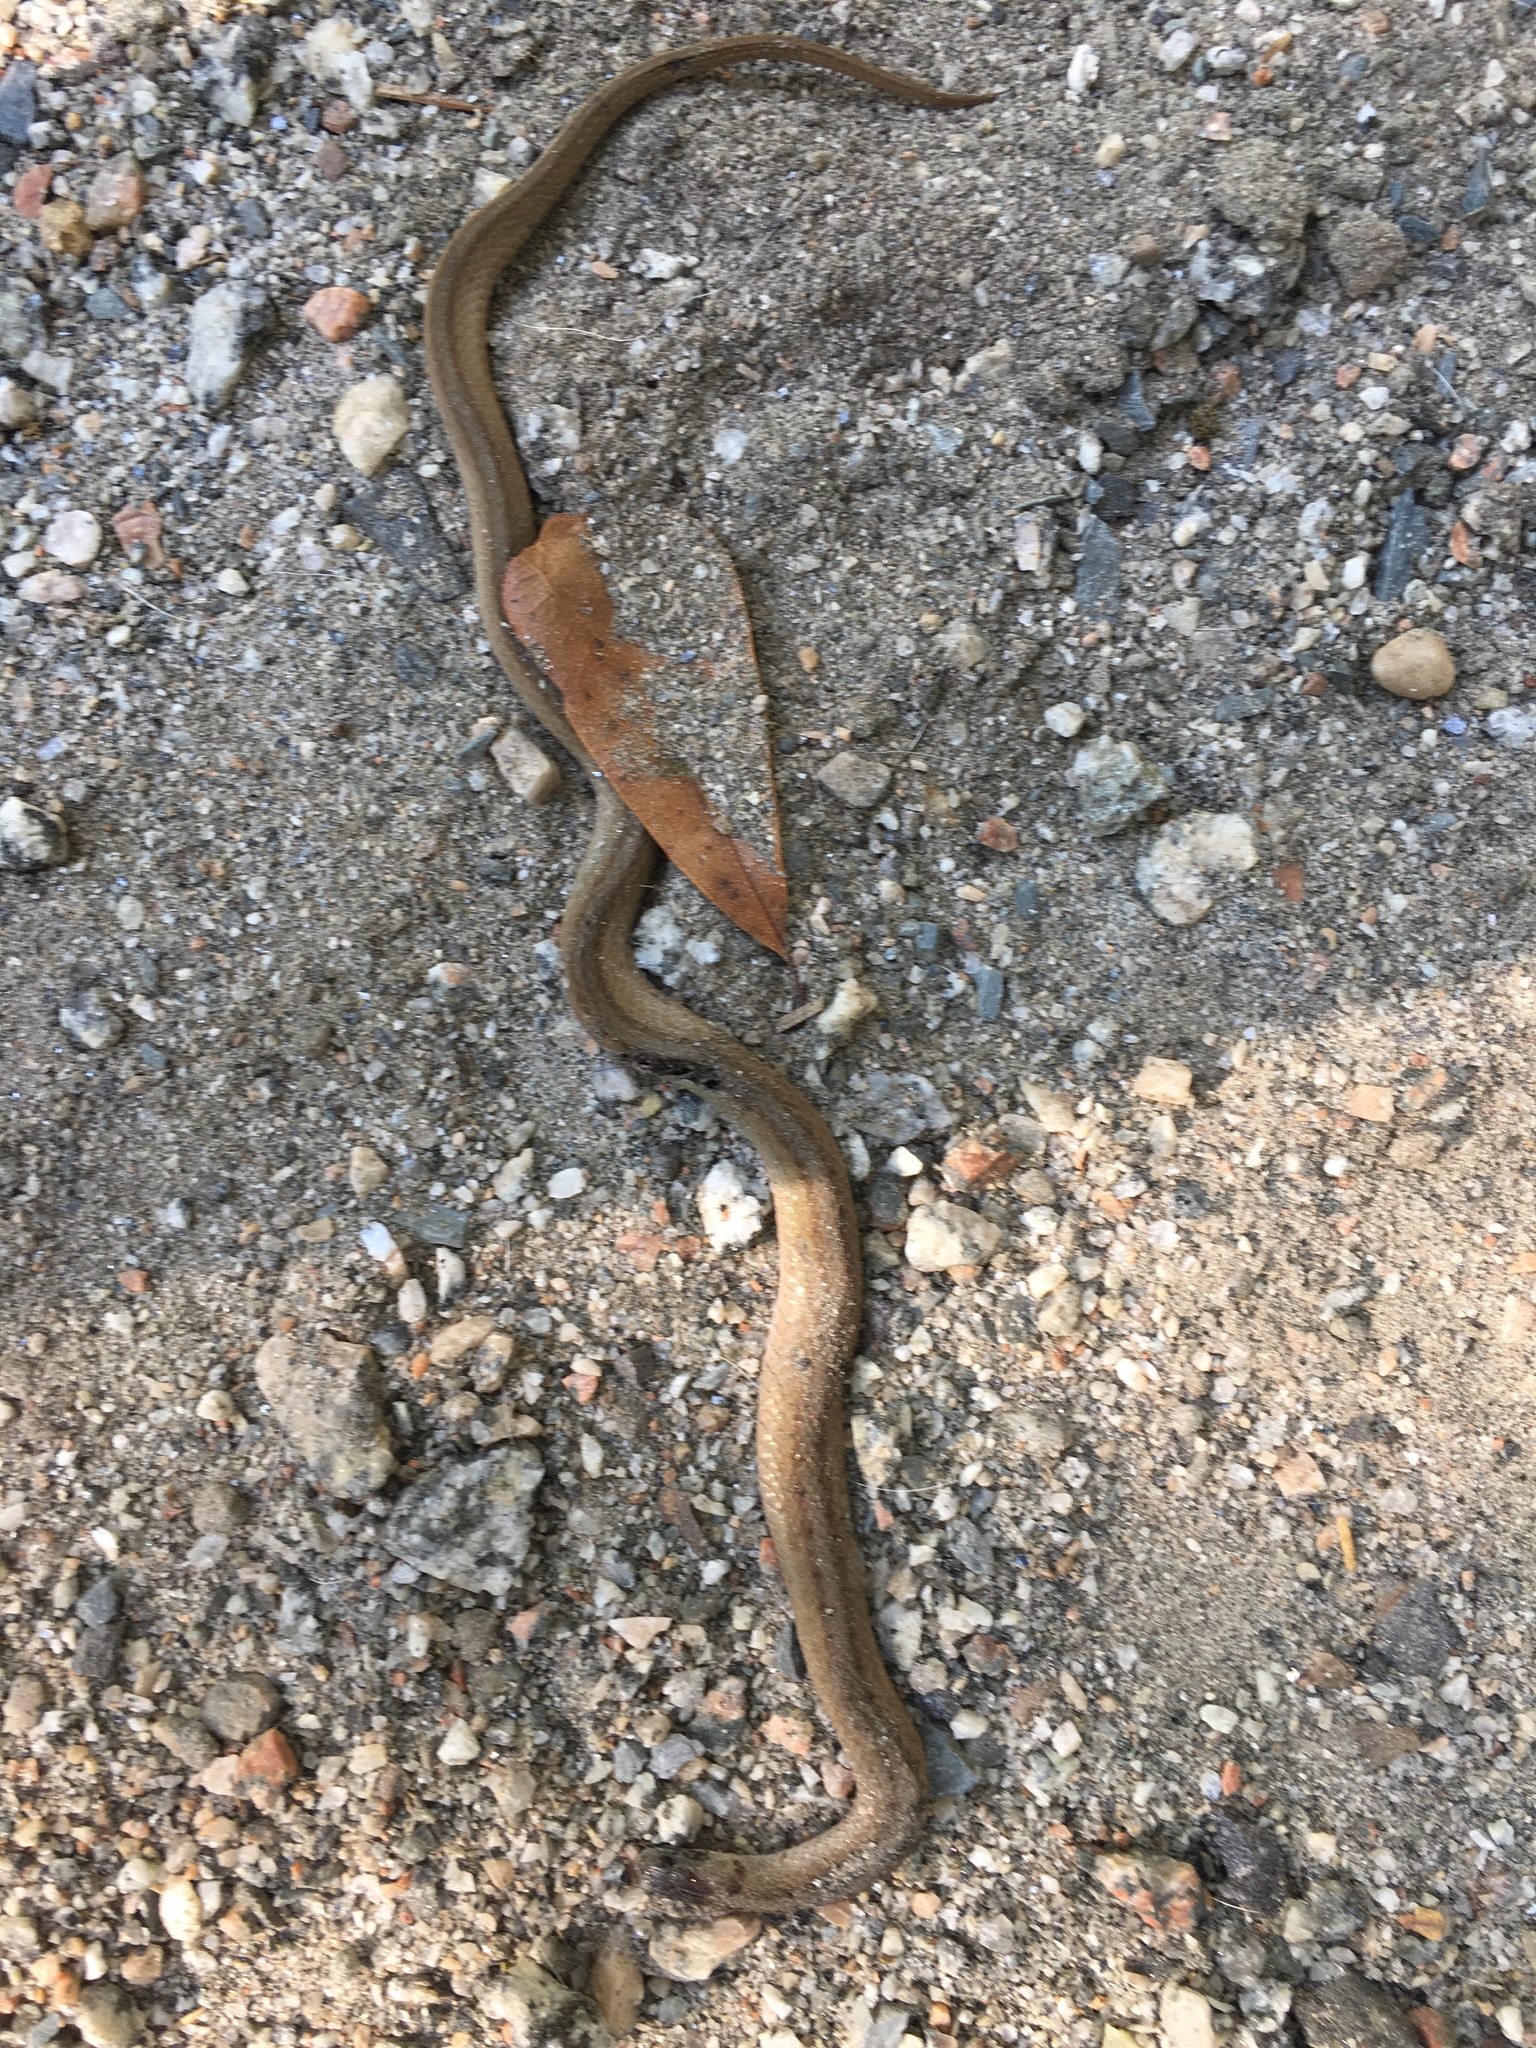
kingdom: Animalia
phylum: Chordata
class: Squamata
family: Colubridae
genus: Storeria
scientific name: Storeria dekayi
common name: (dekay’s) brown snake
